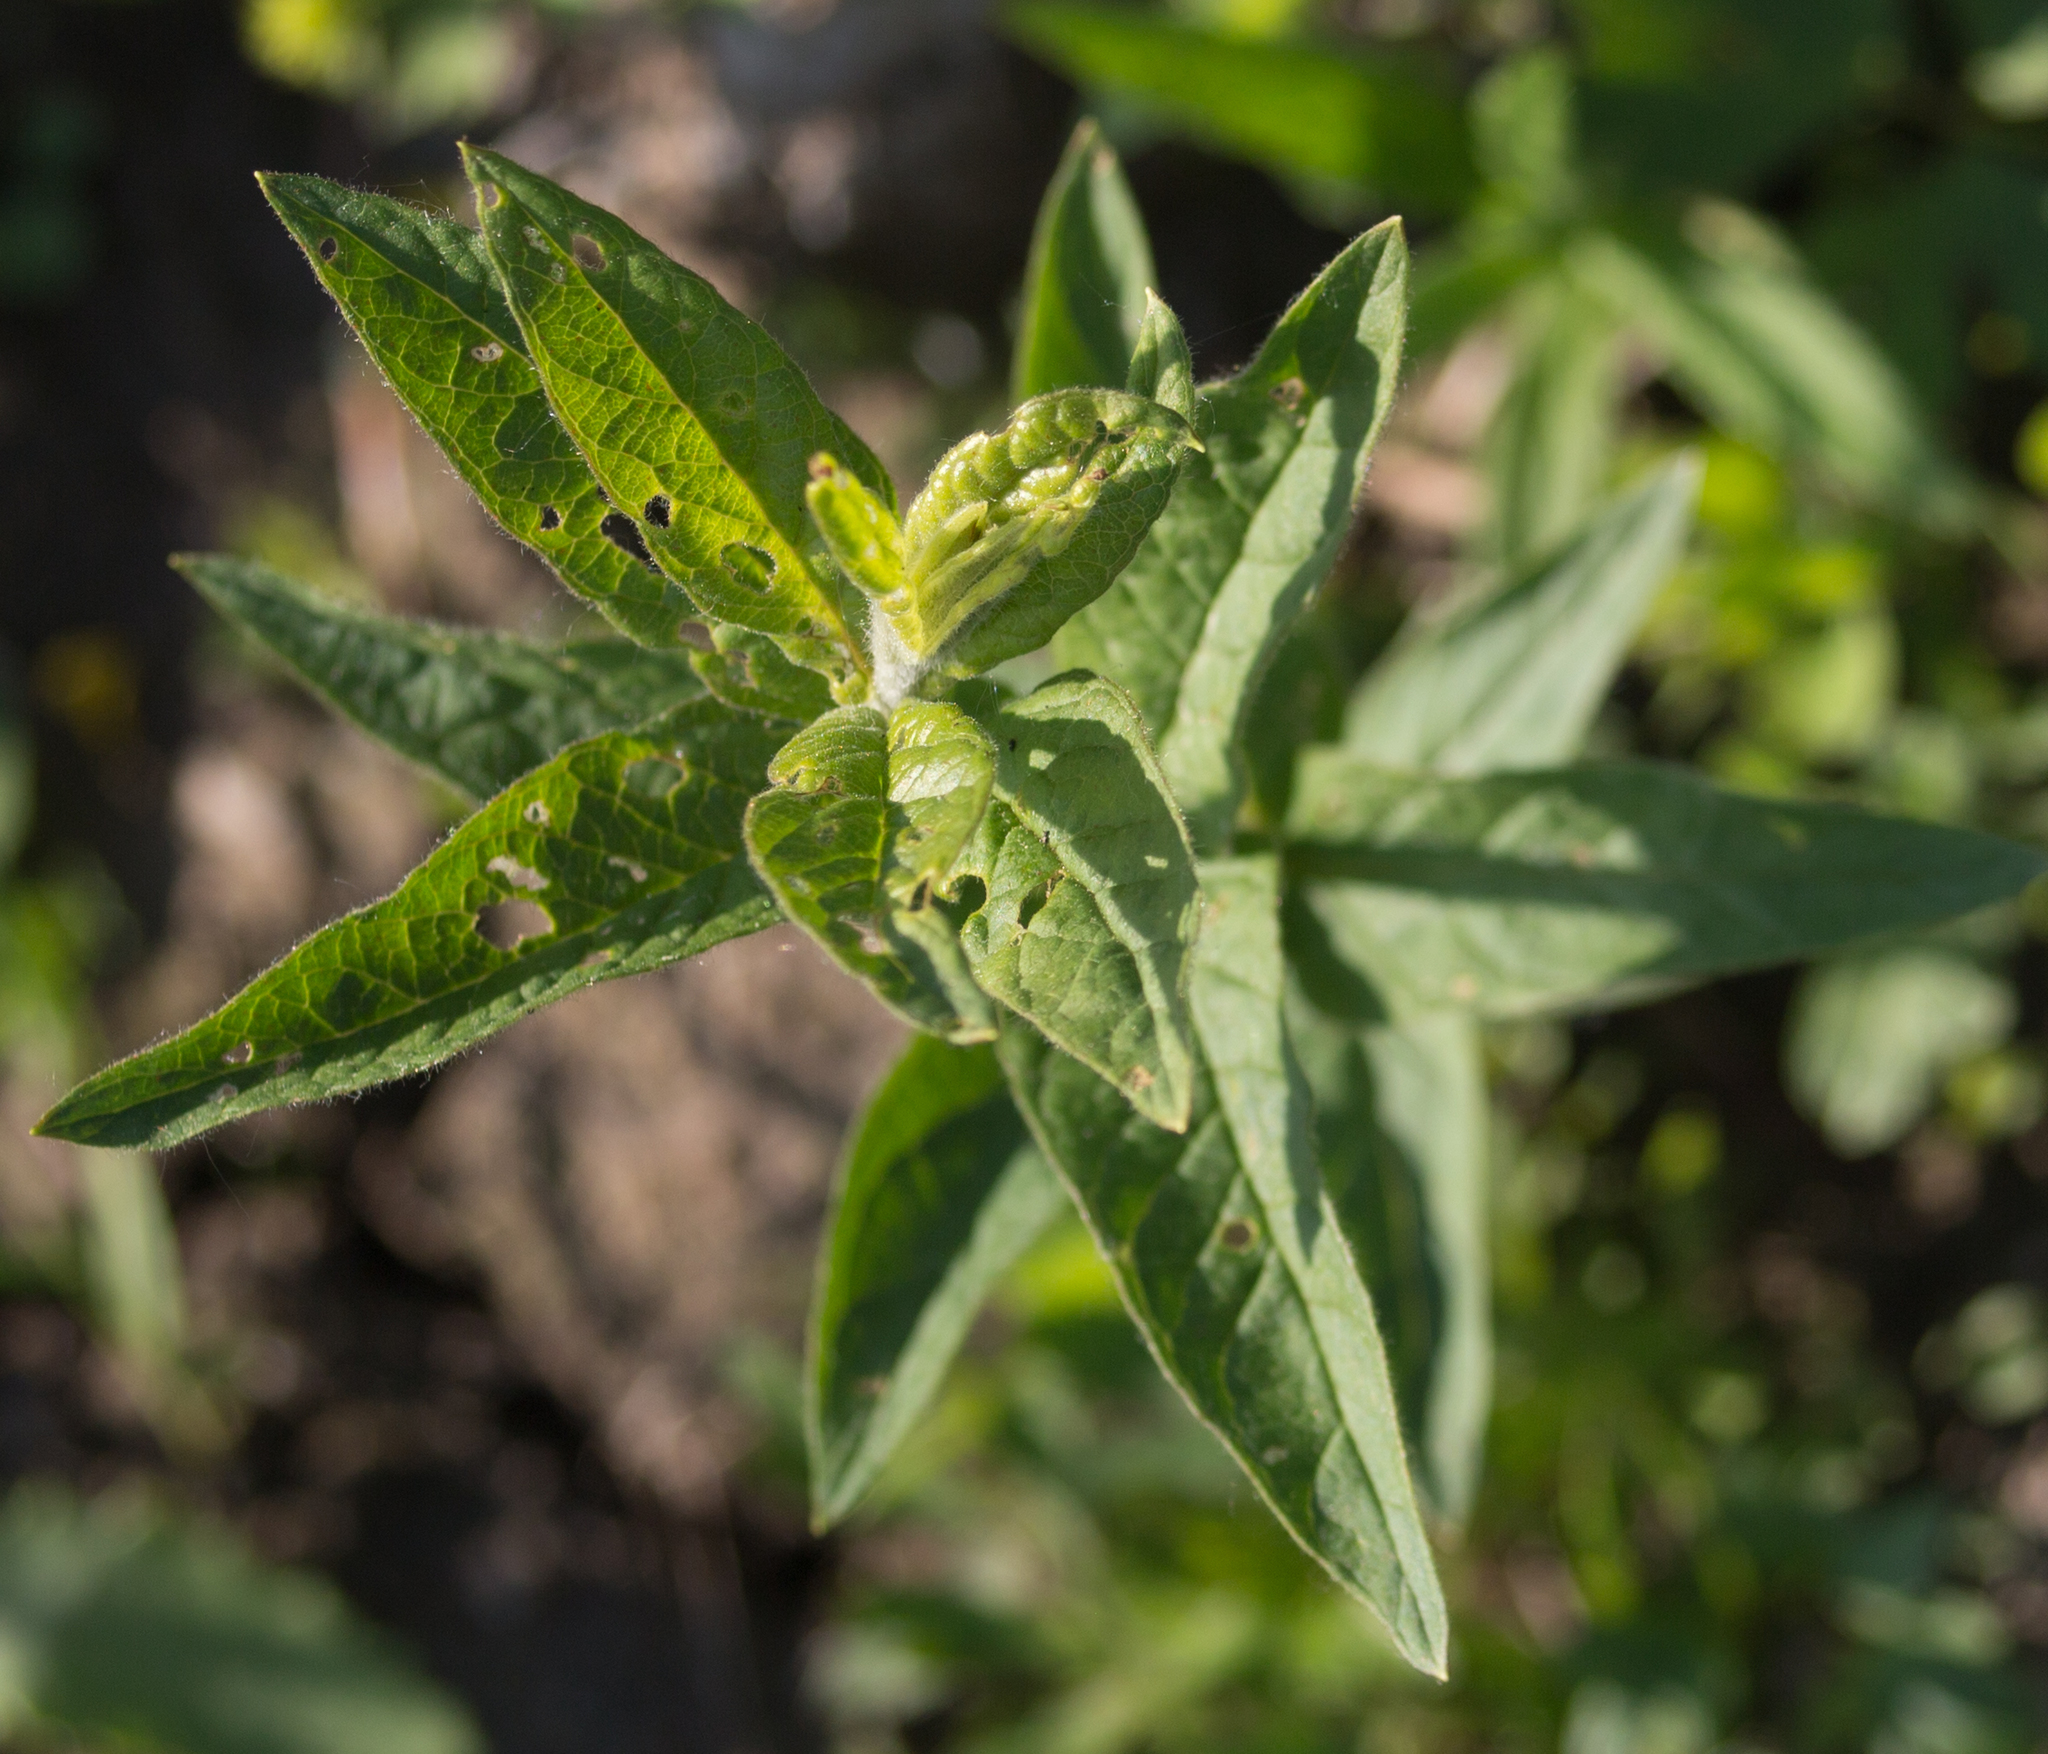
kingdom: Plantae
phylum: Tracheophyta
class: Magnoliopsida
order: Ericales
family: Primulaceae
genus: Lysimachia
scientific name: Lysimachia vulgaris
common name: Yellow loosestrife
